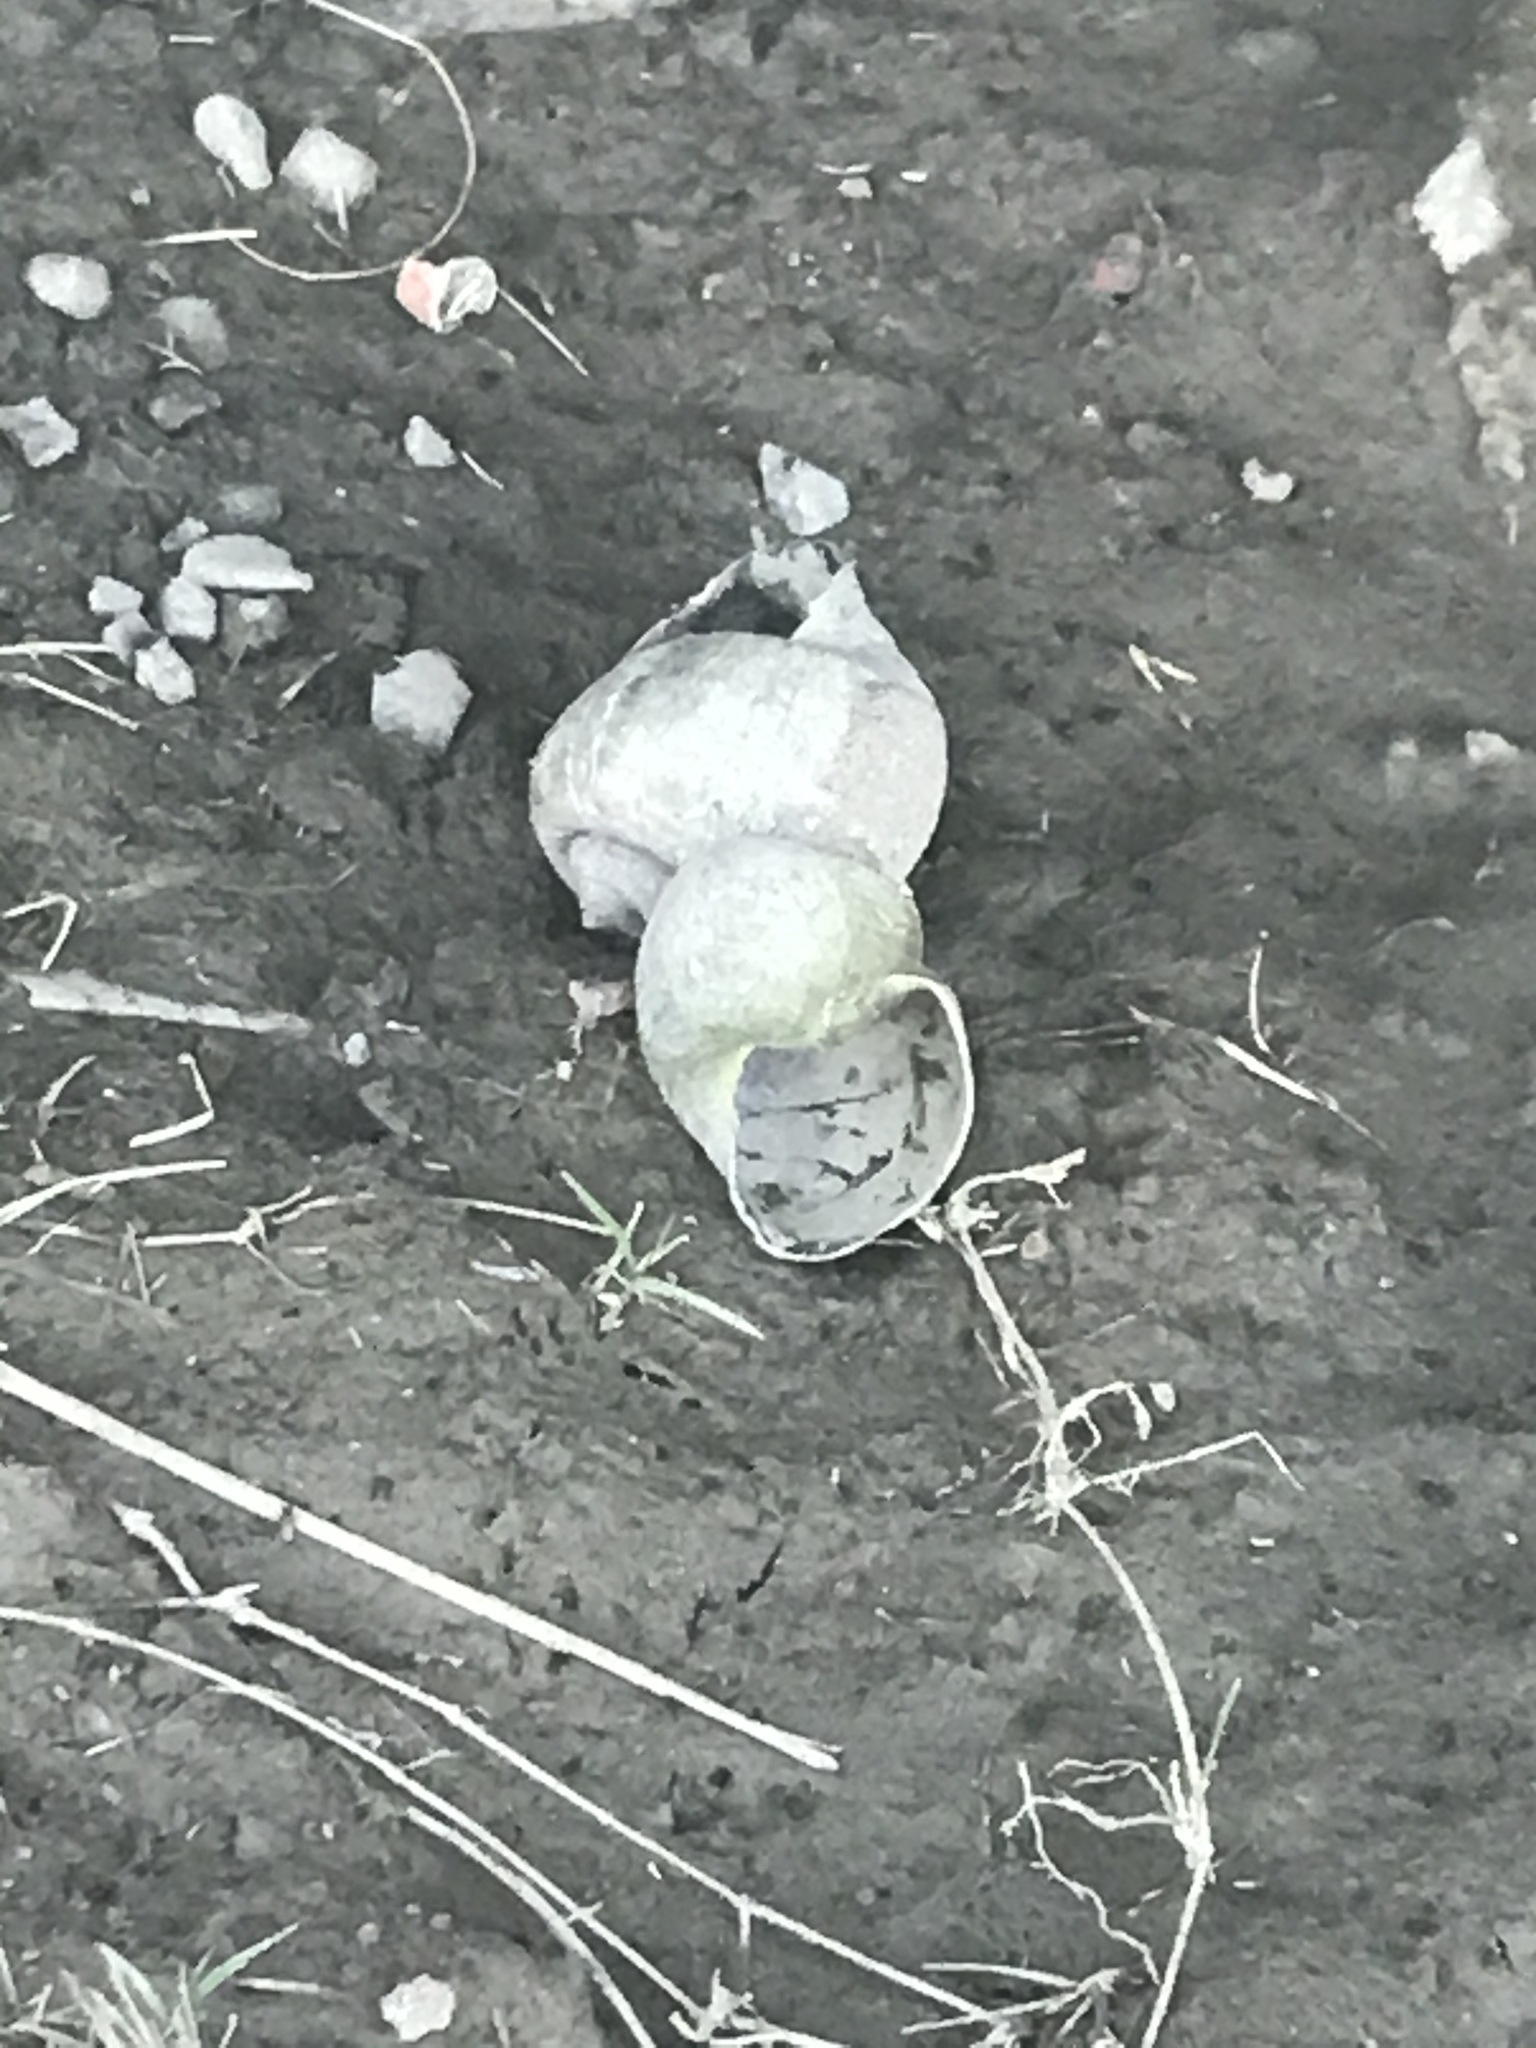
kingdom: Animalia
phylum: Mollusca
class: Gastropoda
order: Architaenioglossa
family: Ampullariidae
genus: Pomacea
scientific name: Pomacea canaliculata
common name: Channeled applesnail
